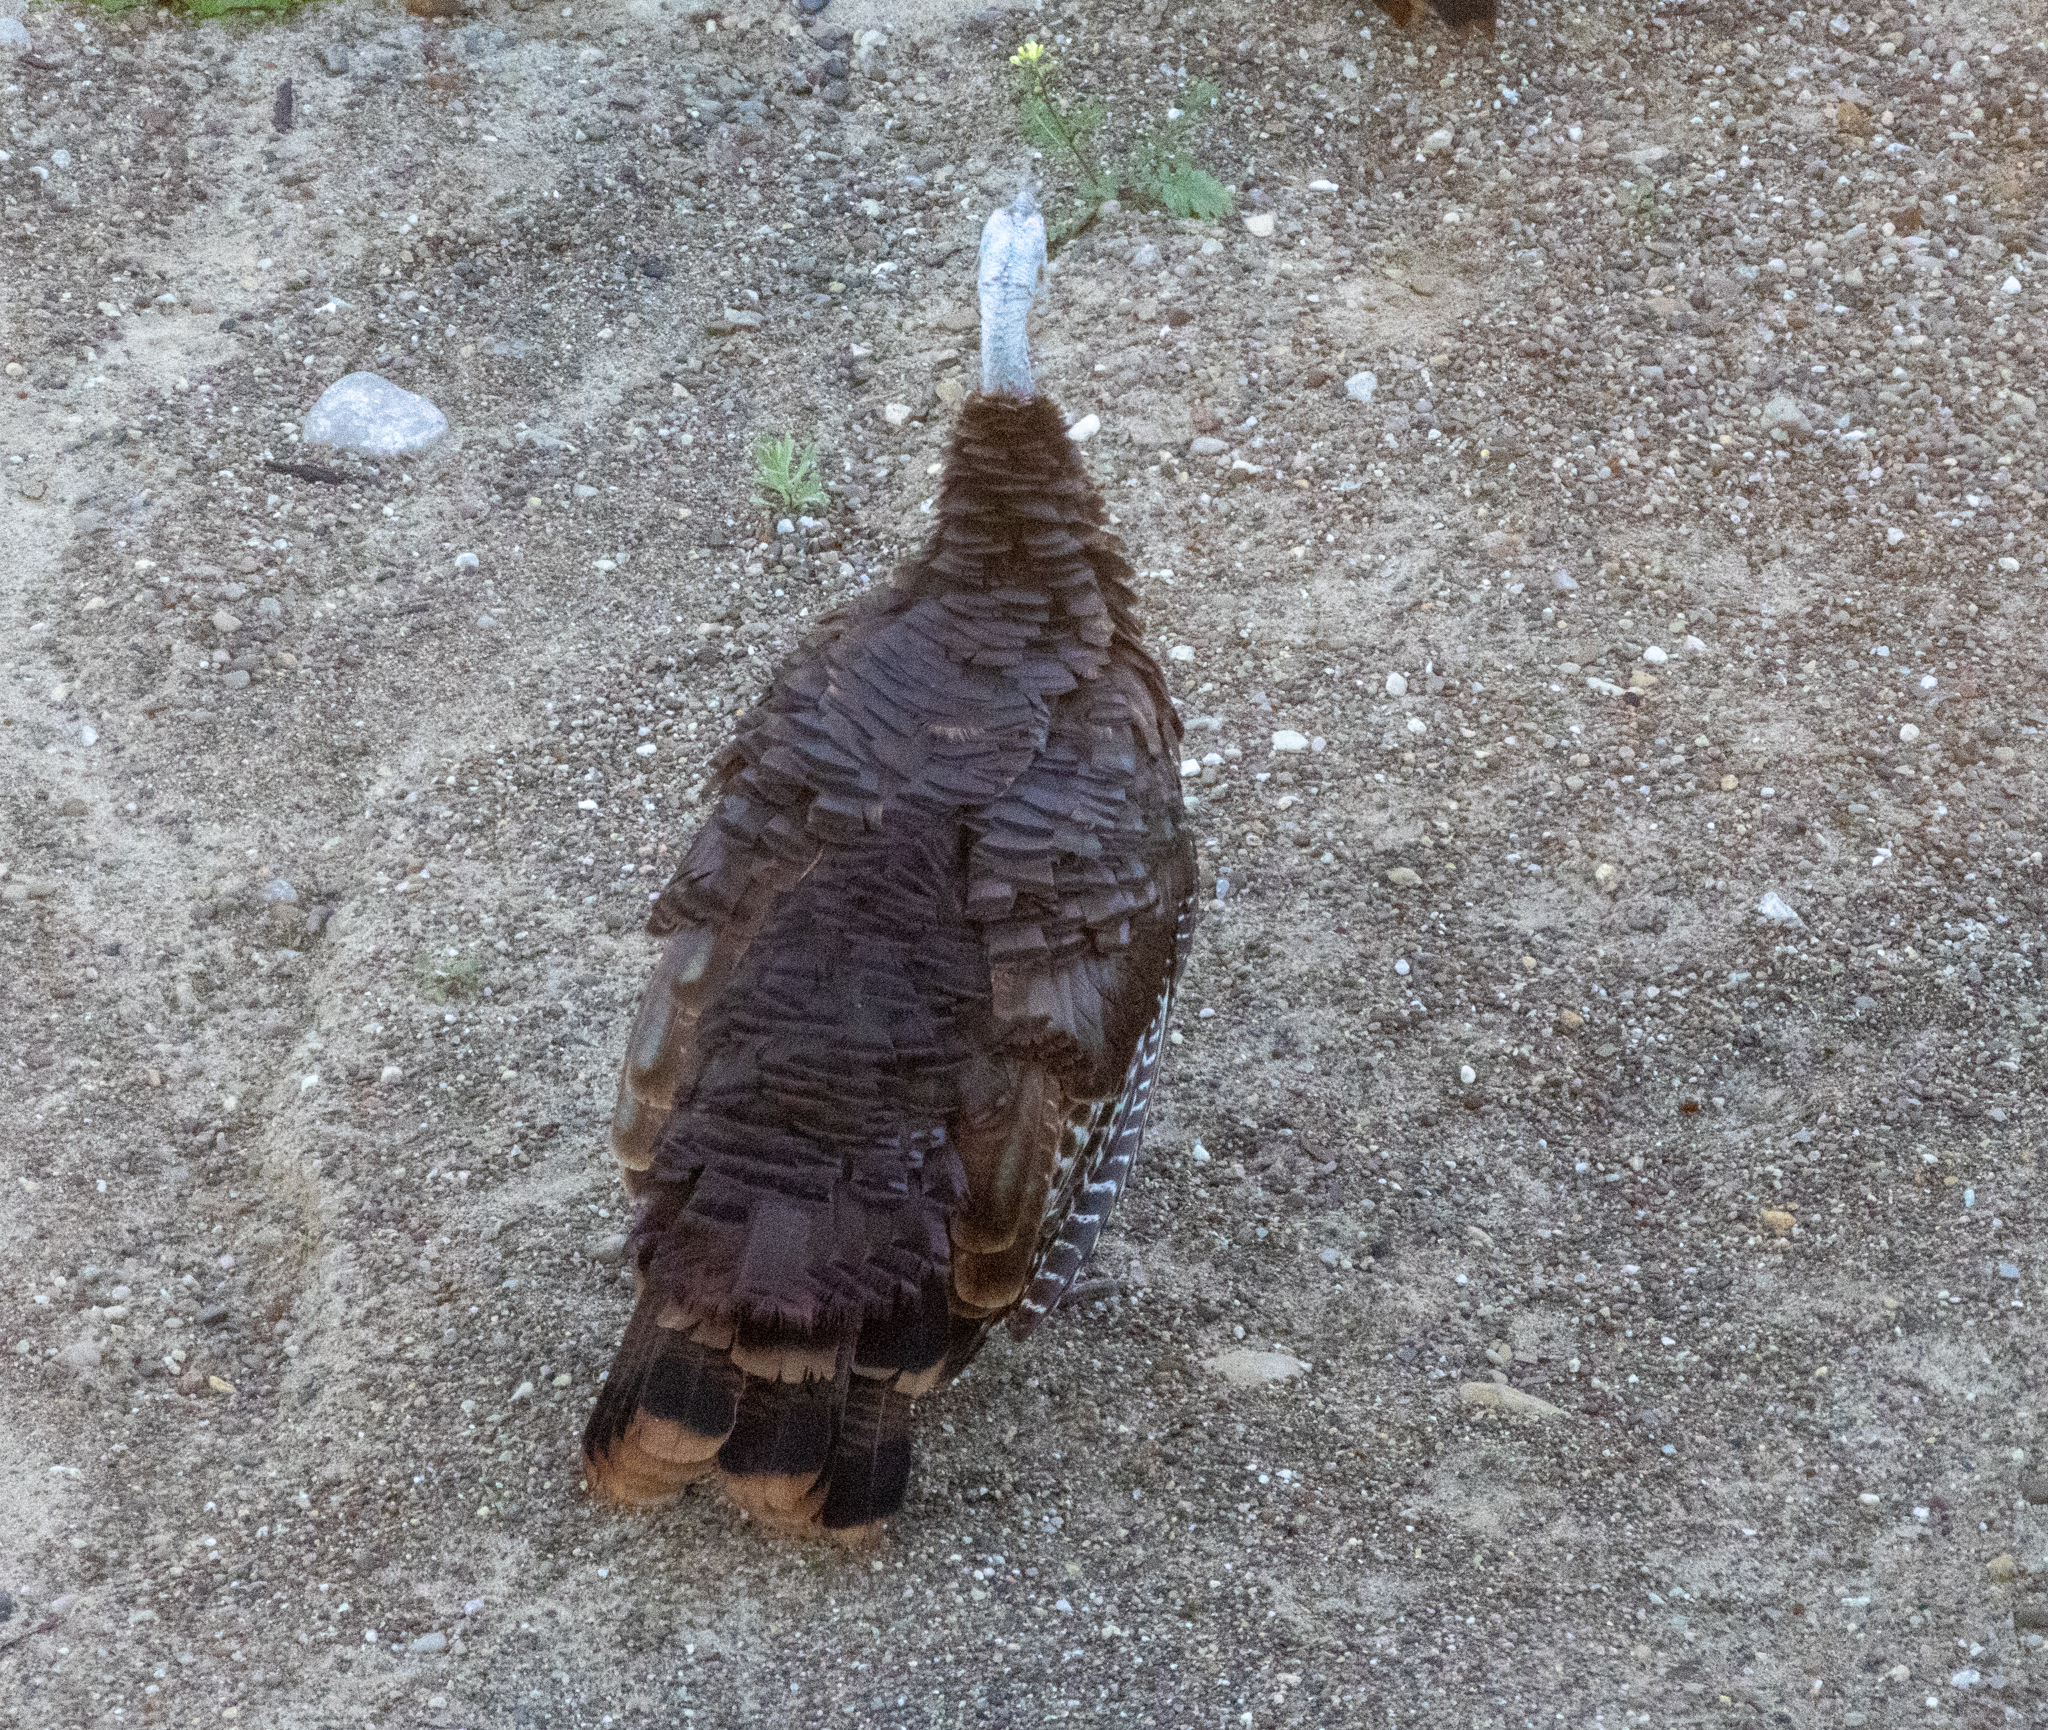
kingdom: Animalia
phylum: Chordata
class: Aves
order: Galliformes
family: Phasianidae
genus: Meleagris
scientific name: Meleagris gallopavo
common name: Wild turkey
